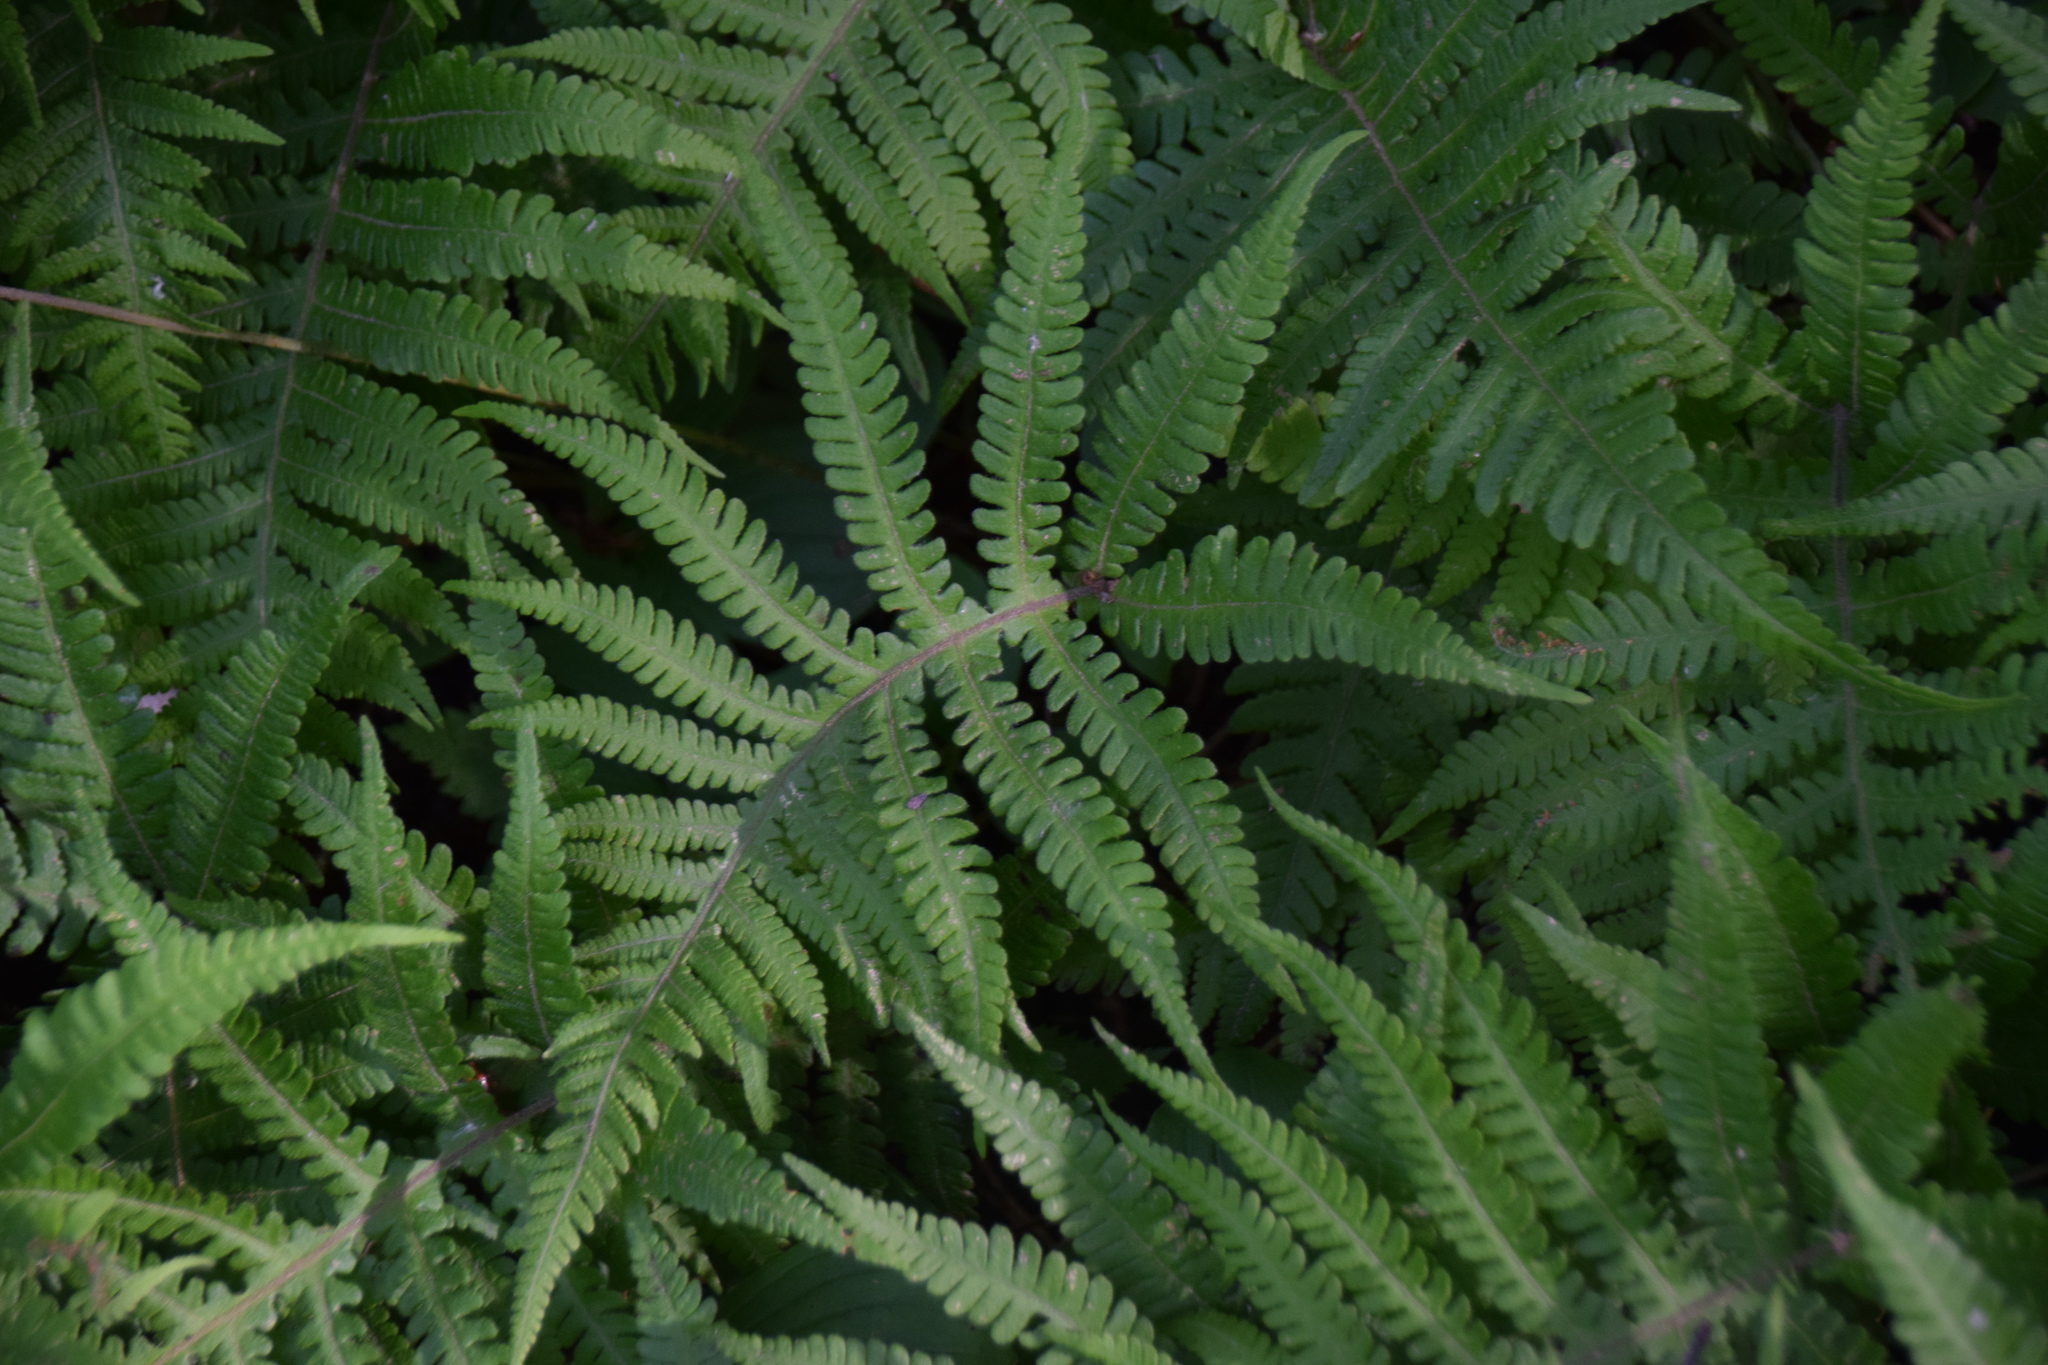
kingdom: Plantae
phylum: Tracheophyta
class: Polypodiopsida
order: Polypodiales
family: Thelypteridaceae
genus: Phegopteris
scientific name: Phegopteris connectilis
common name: Beech fern
